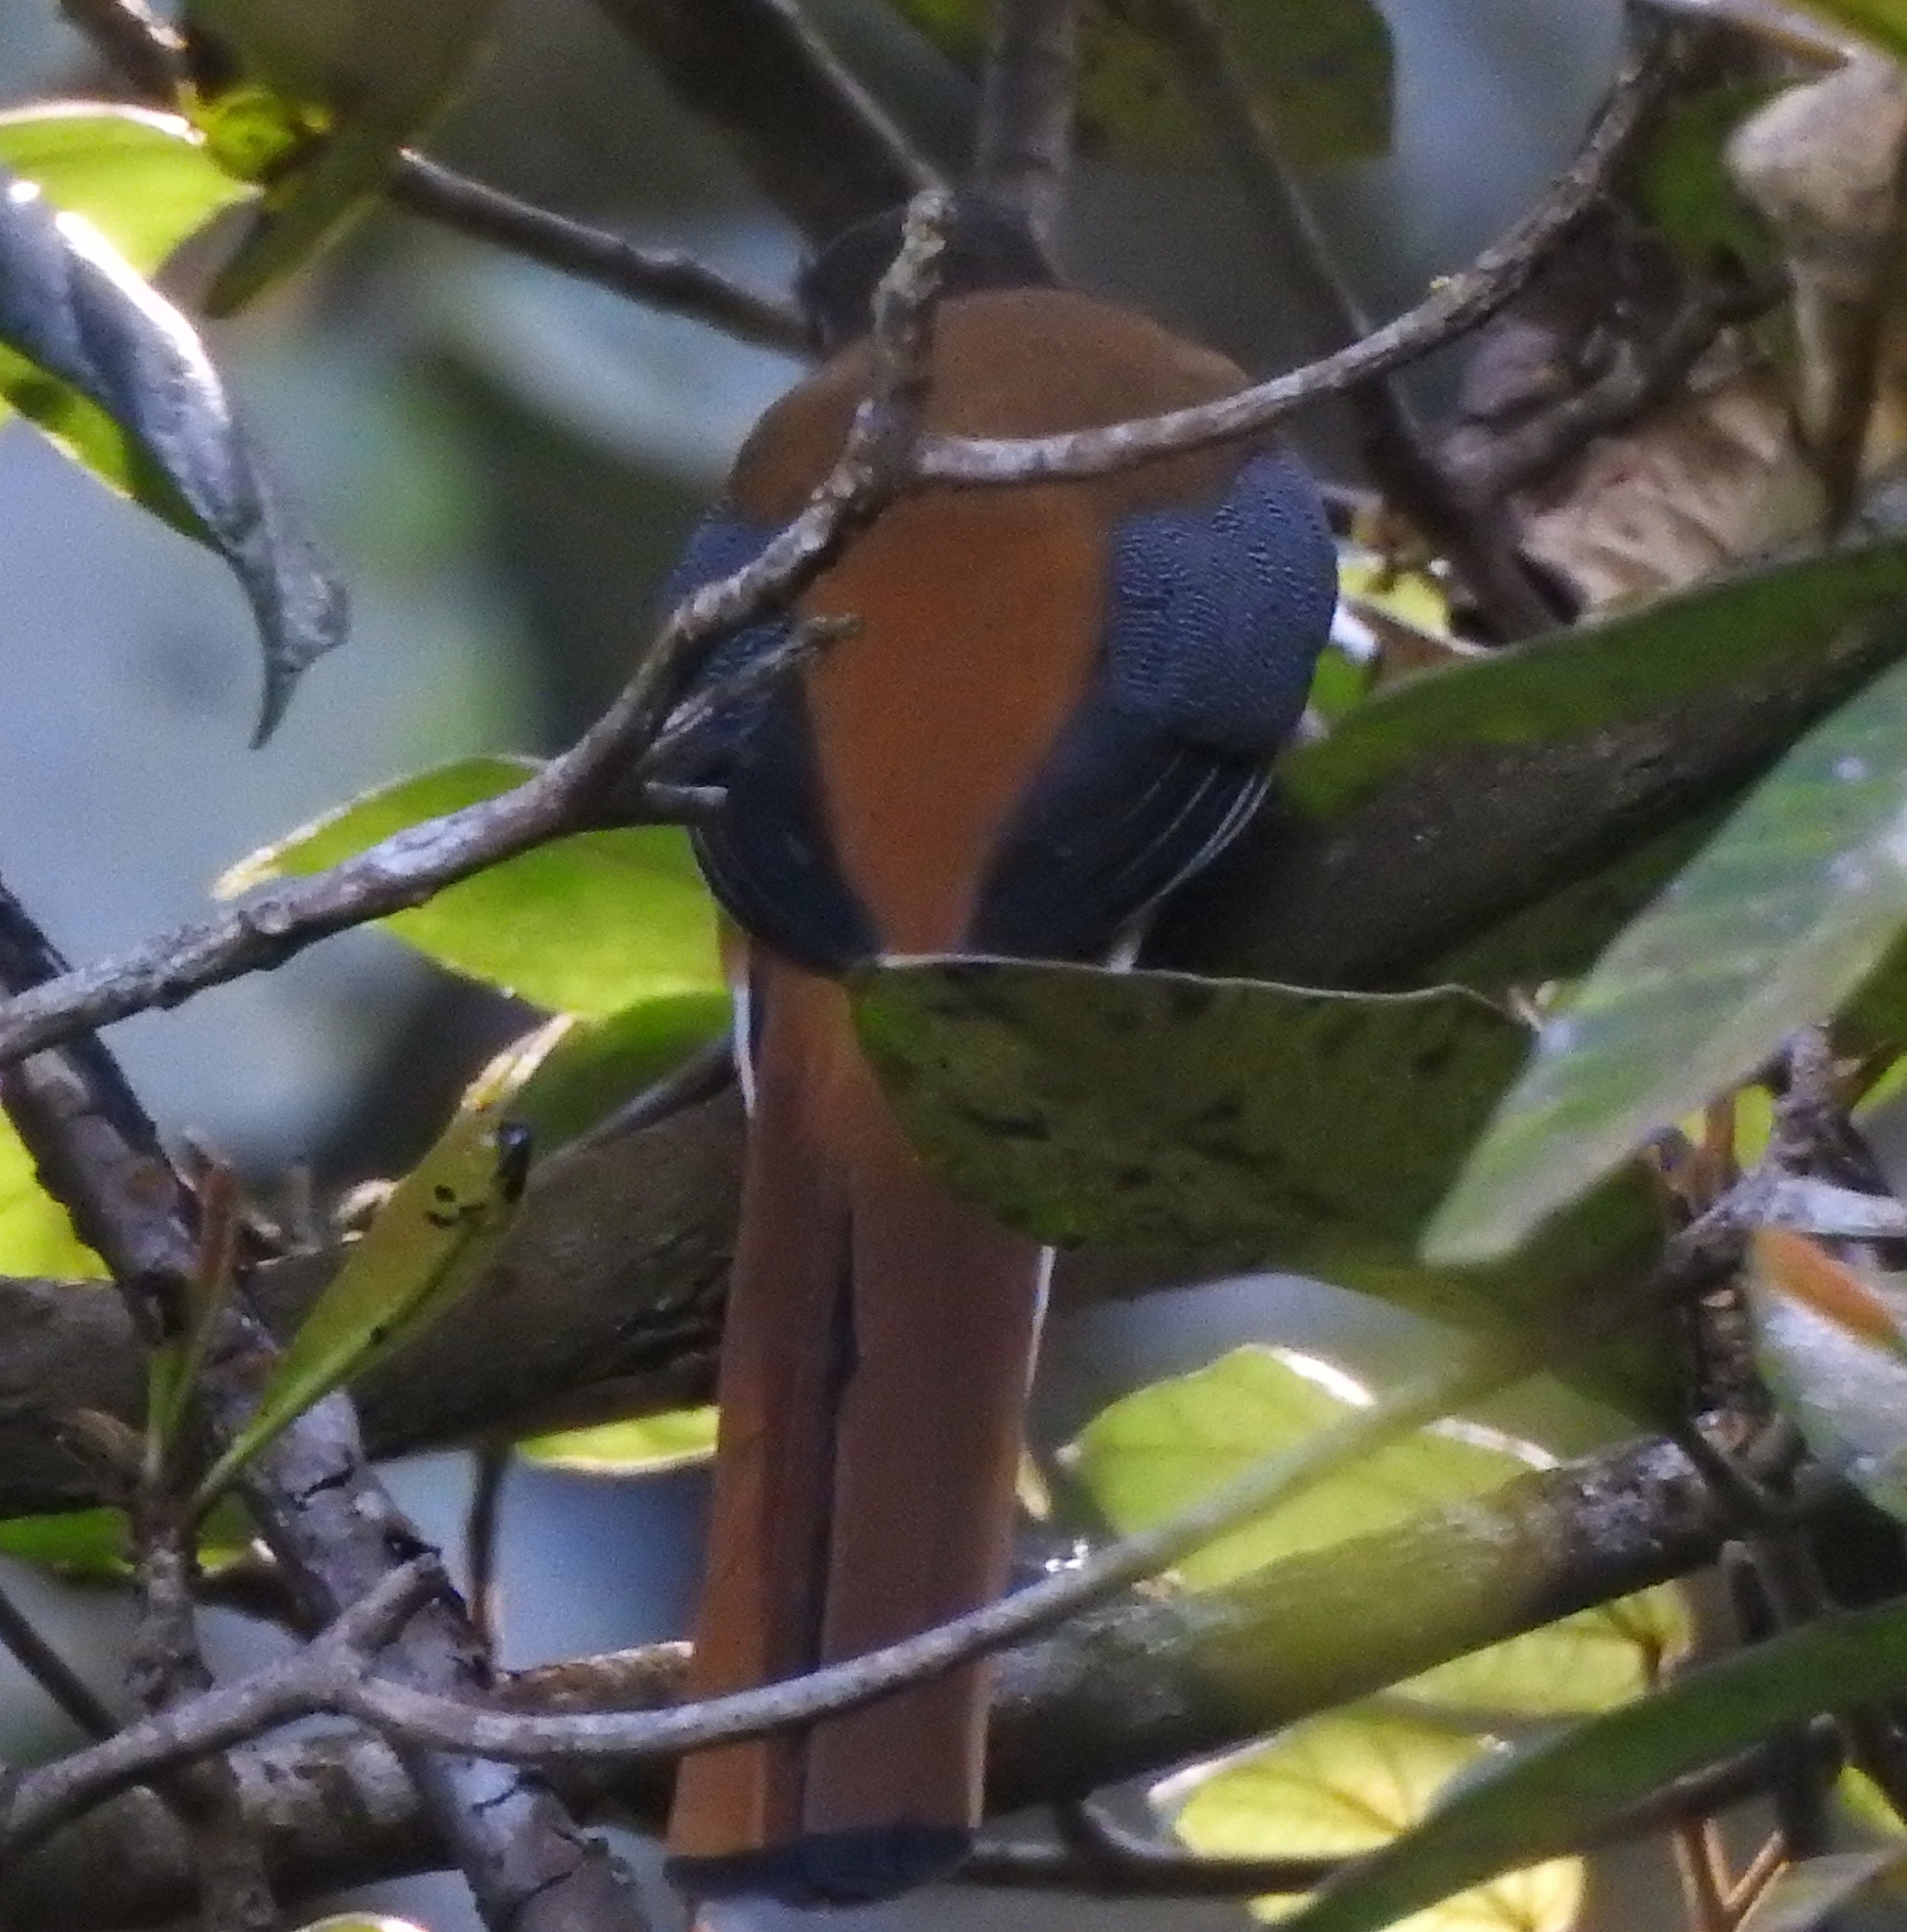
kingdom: Animalia
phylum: Chordata
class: Aves
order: Trogoniformes
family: Trogonidae
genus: Harpactes
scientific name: Harpactes fasciatus
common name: Malabar trogon
